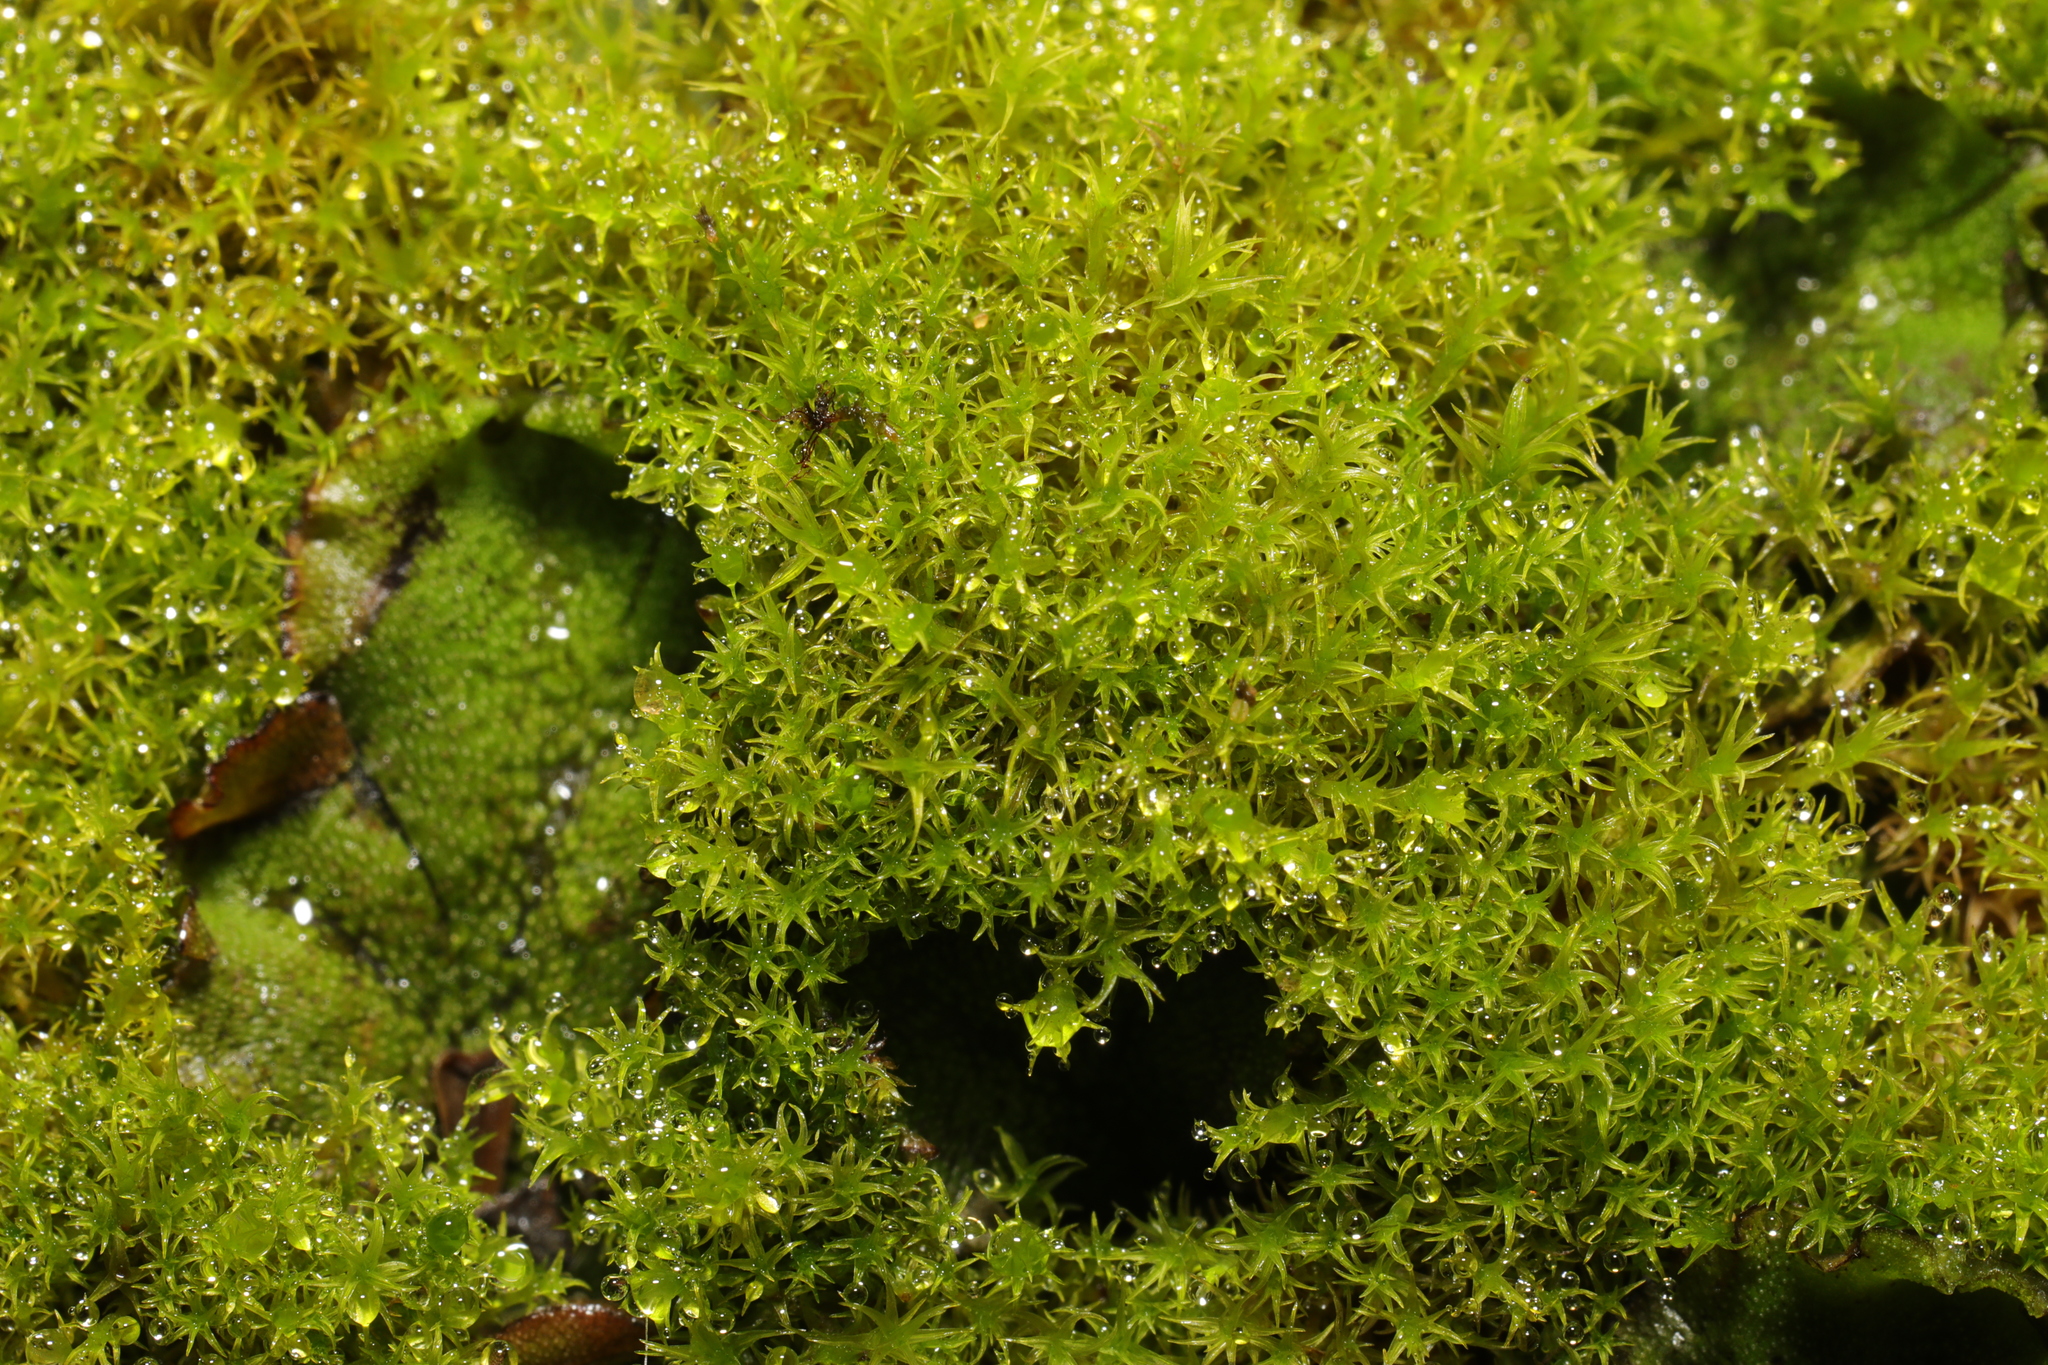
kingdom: Plantae
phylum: Bryophyta
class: Bryopsida
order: Pottiales
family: Pottiaceae
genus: Vinealobryum
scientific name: Vinealobryum insulanum
